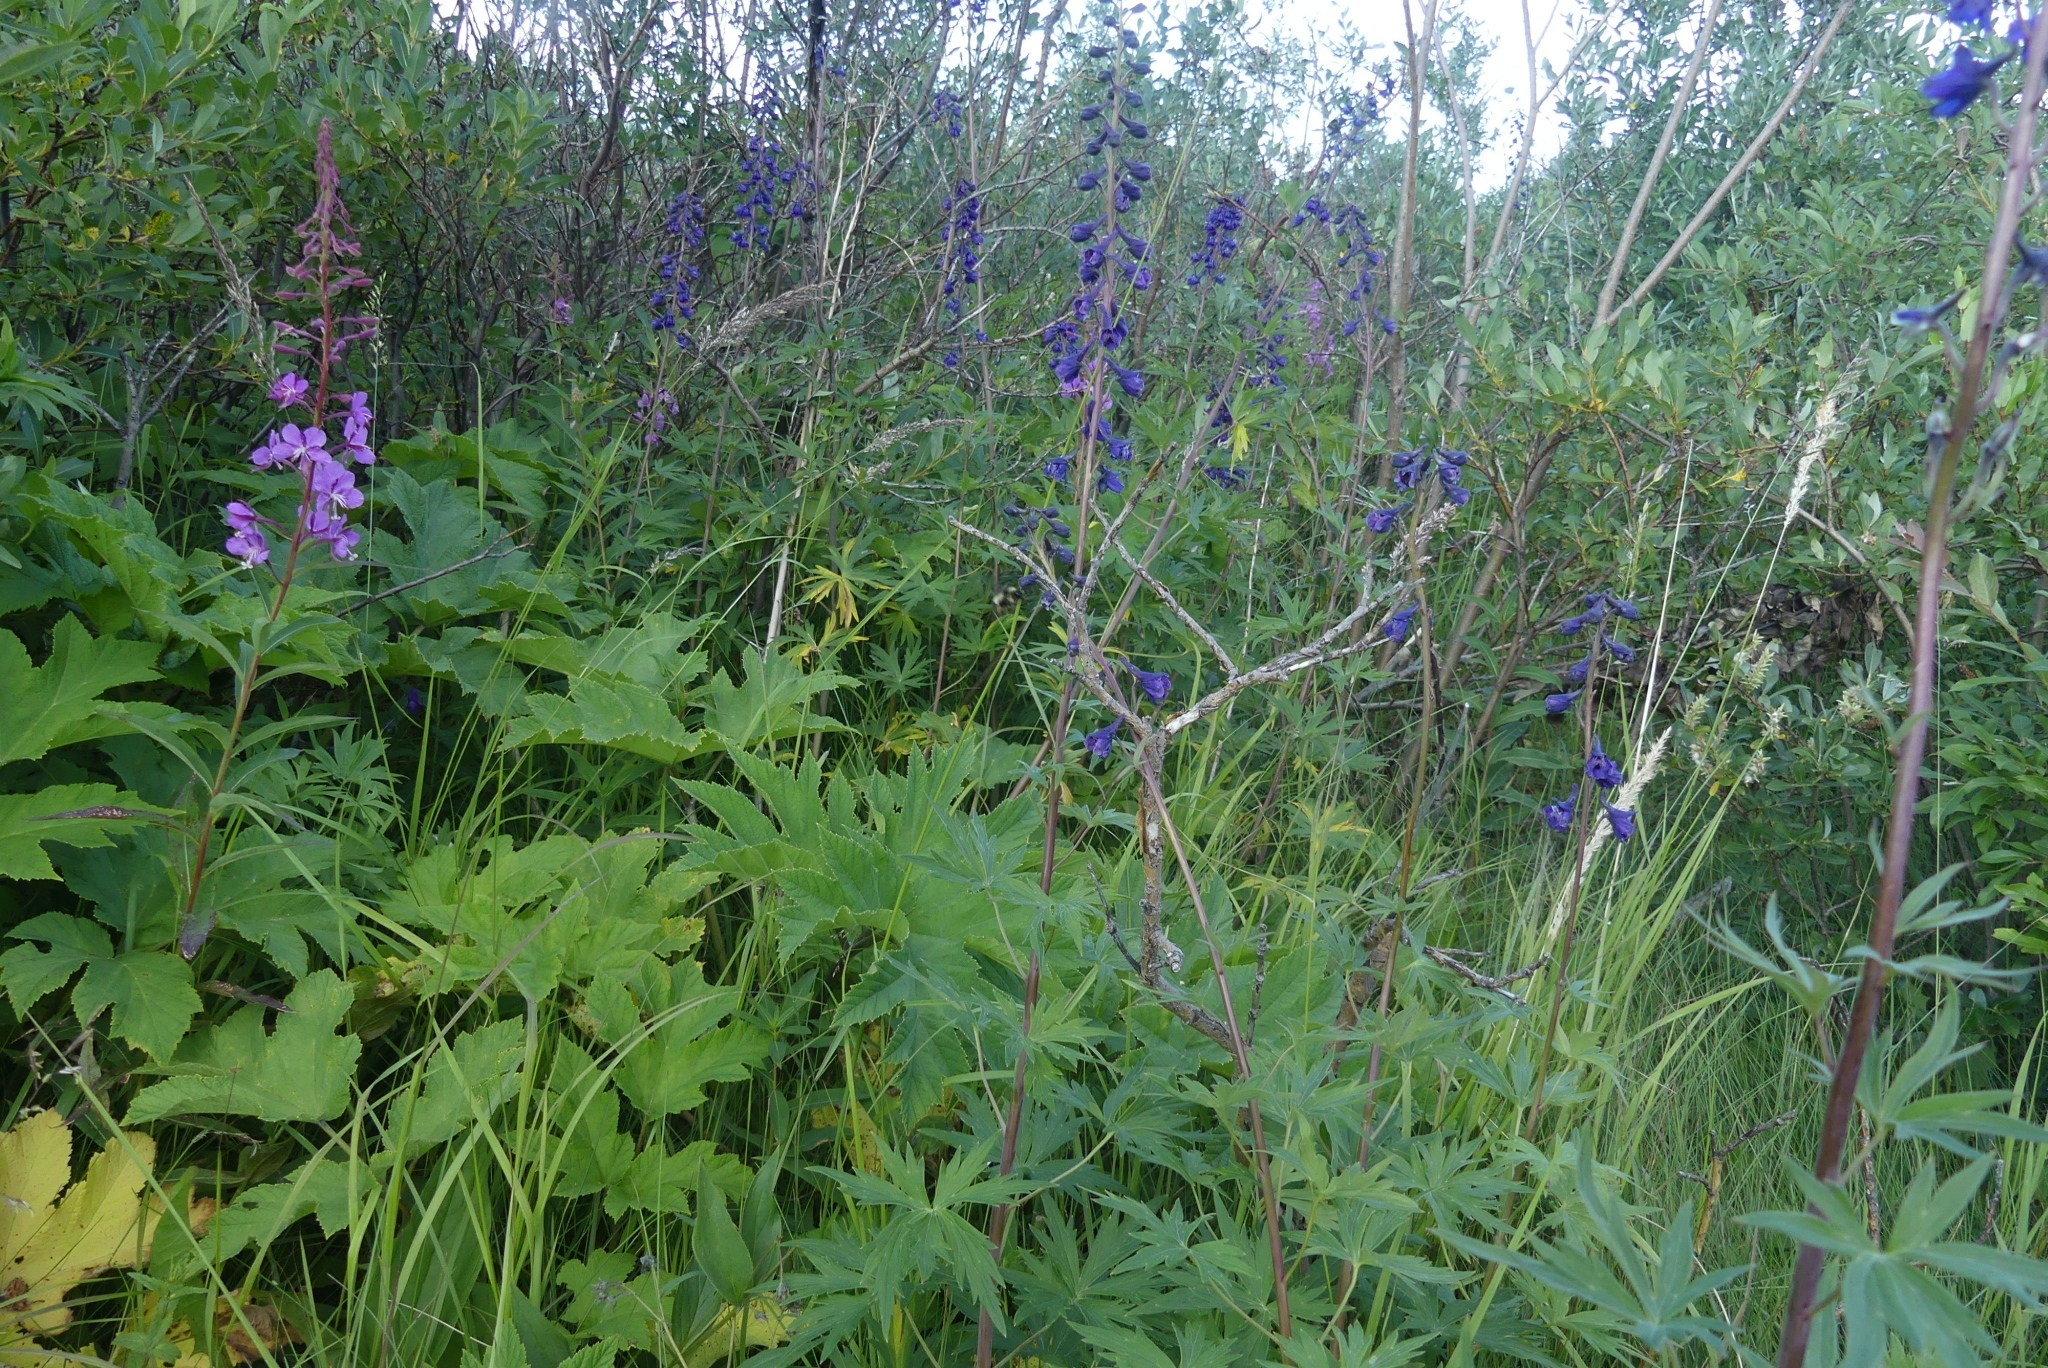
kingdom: Plantae
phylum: Tracheophyta
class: Magnoliopsida
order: Ranunculales
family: Ranunculaceae
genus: Delphinium
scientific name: Delphinium glaucum
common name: Brown's larkspur
